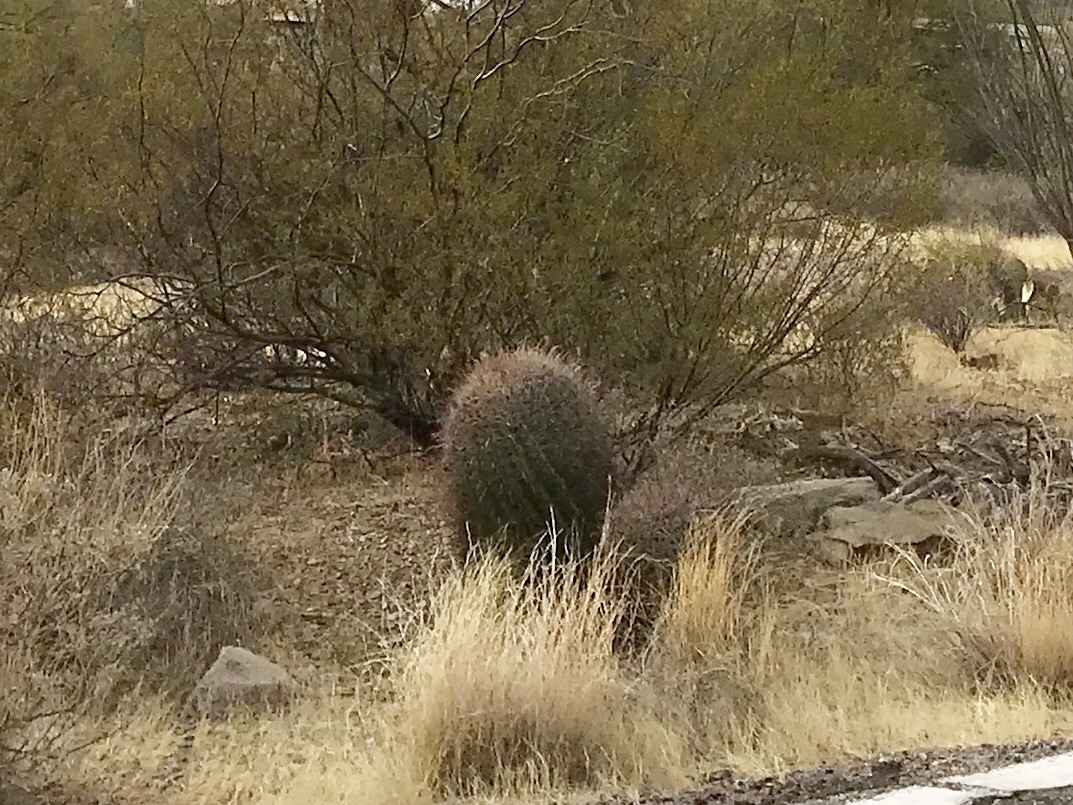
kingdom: Plantae
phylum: Tracheophyta
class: Magnoliopsida
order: Caryophyllales
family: Cactaceae
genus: Ferocactus
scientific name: Ferocactus wislizeni
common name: Candy barrel cactus
